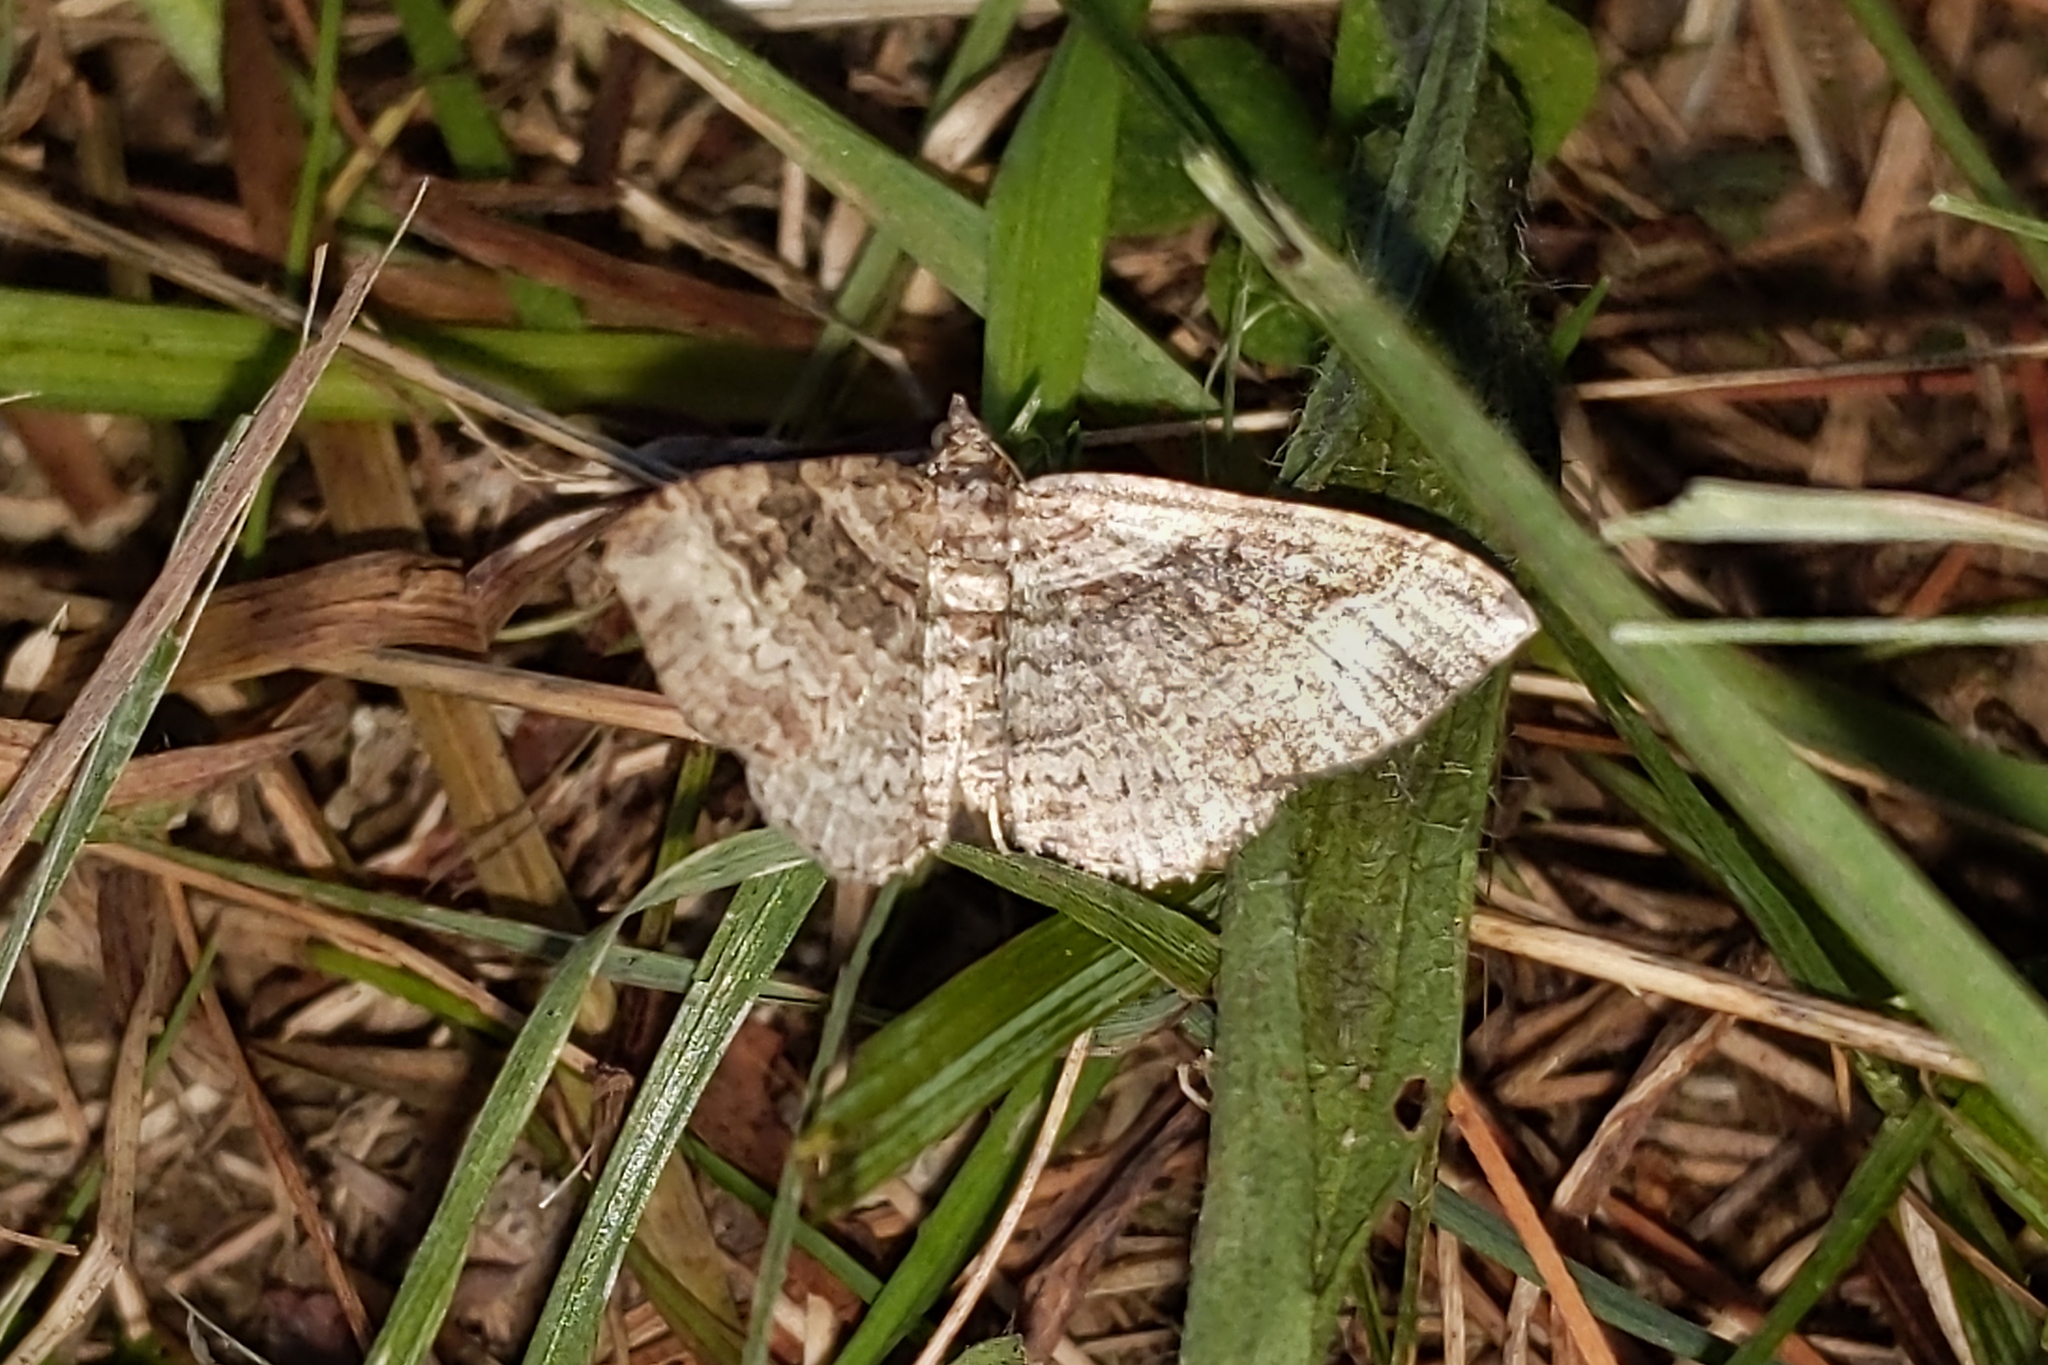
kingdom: Animalia
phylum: Arthropoda
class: Insecta
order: Lepidoptera
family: Geometridae
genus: Costaconvexa
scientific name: Costaconvexa centrostrigaria
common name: Bent-line carpet
